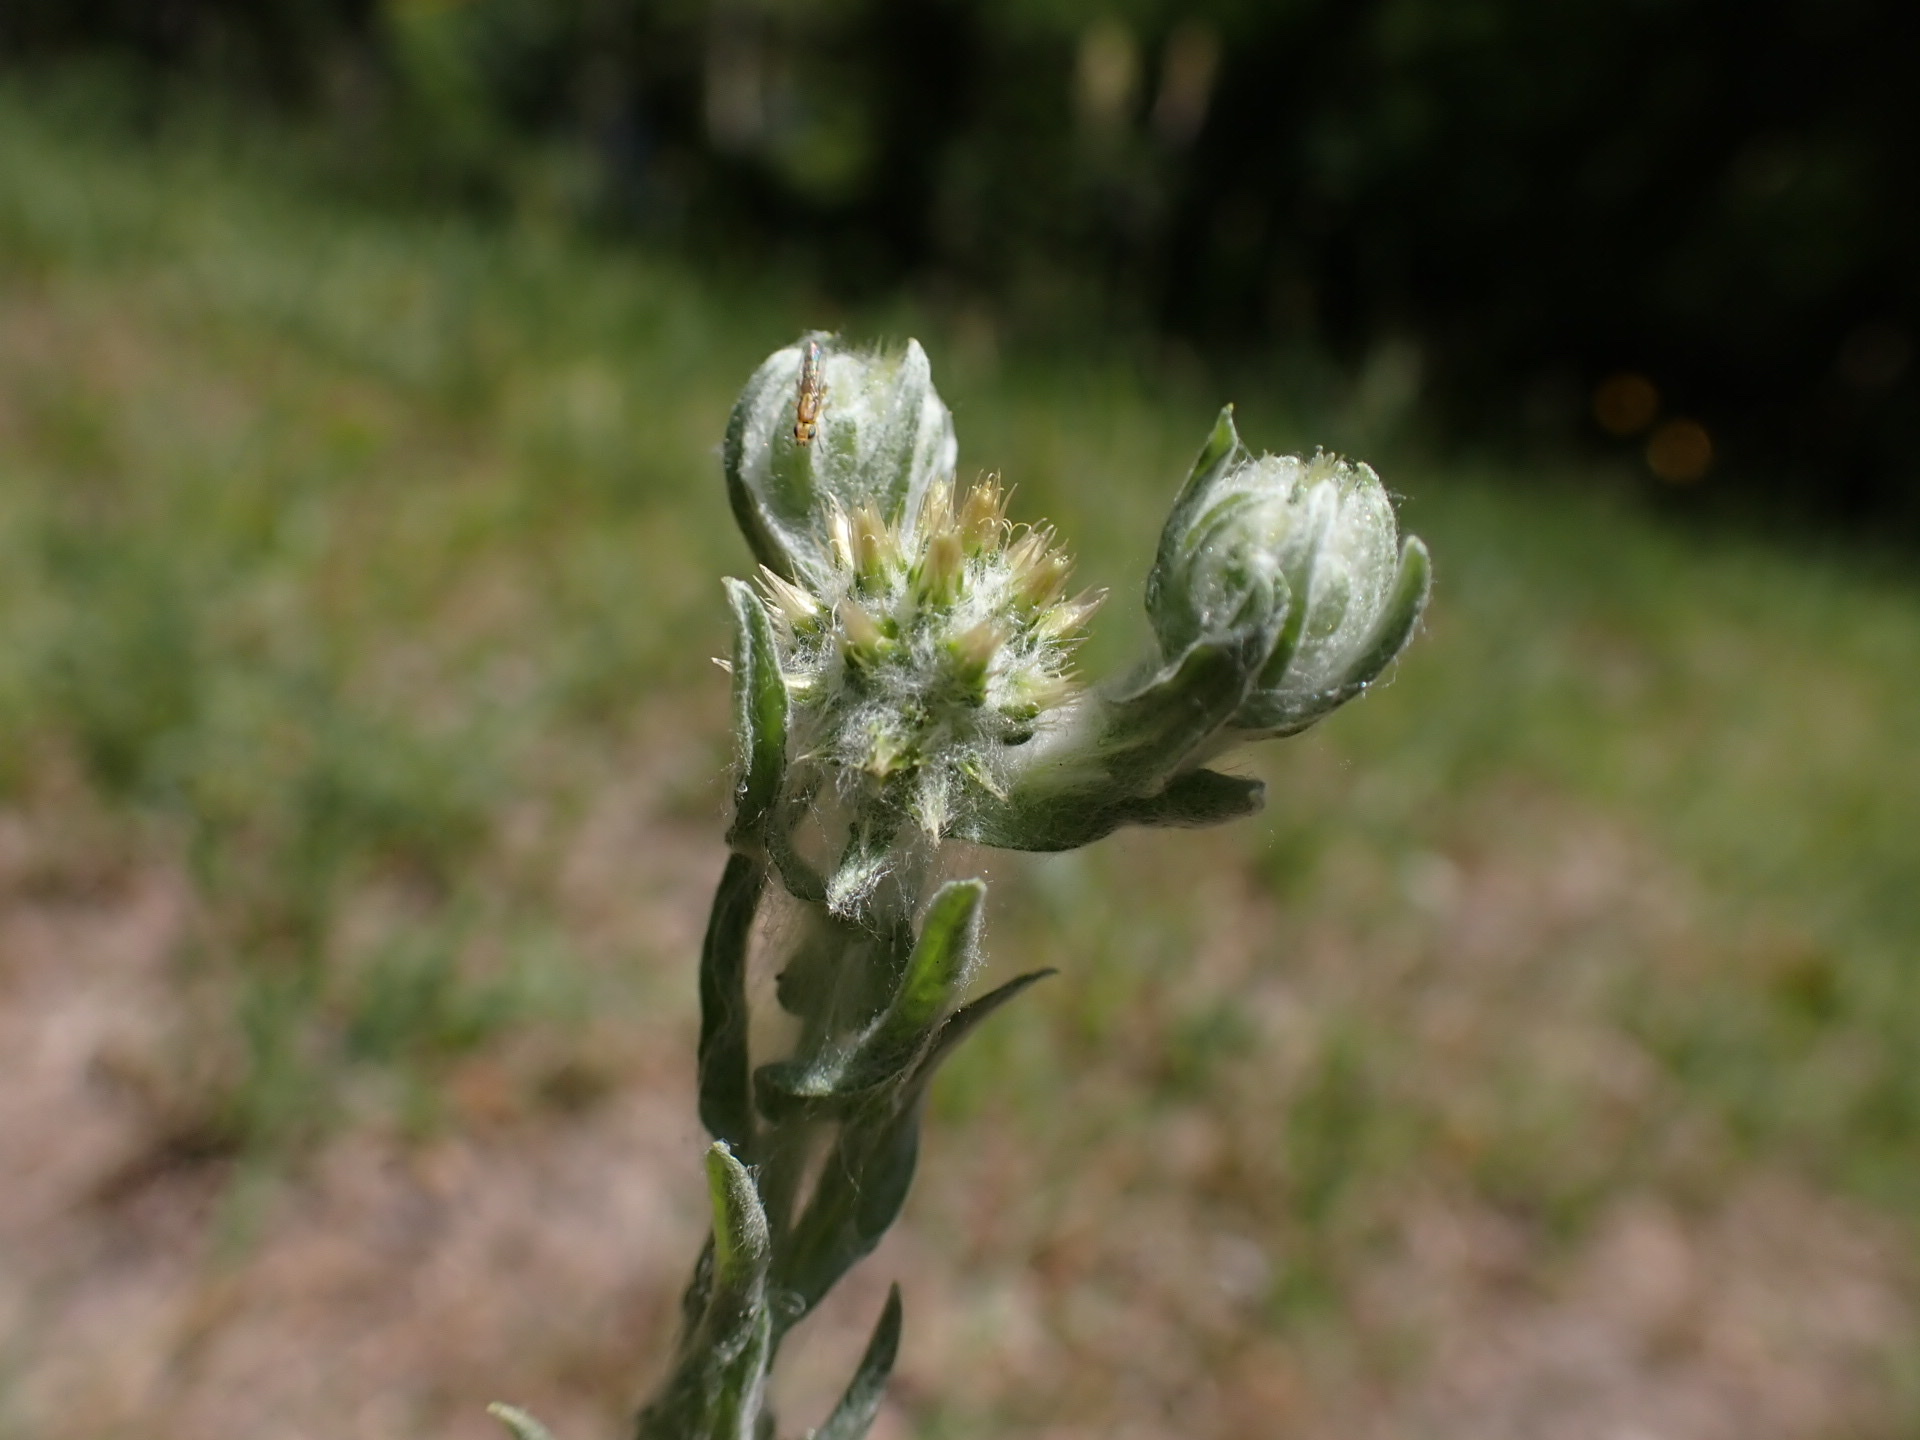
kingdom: Plantae
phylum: Tracheophyta
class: Magnoliopsida
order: Asterales
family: Asteraceae
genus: Filago
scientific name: Filago germanica
